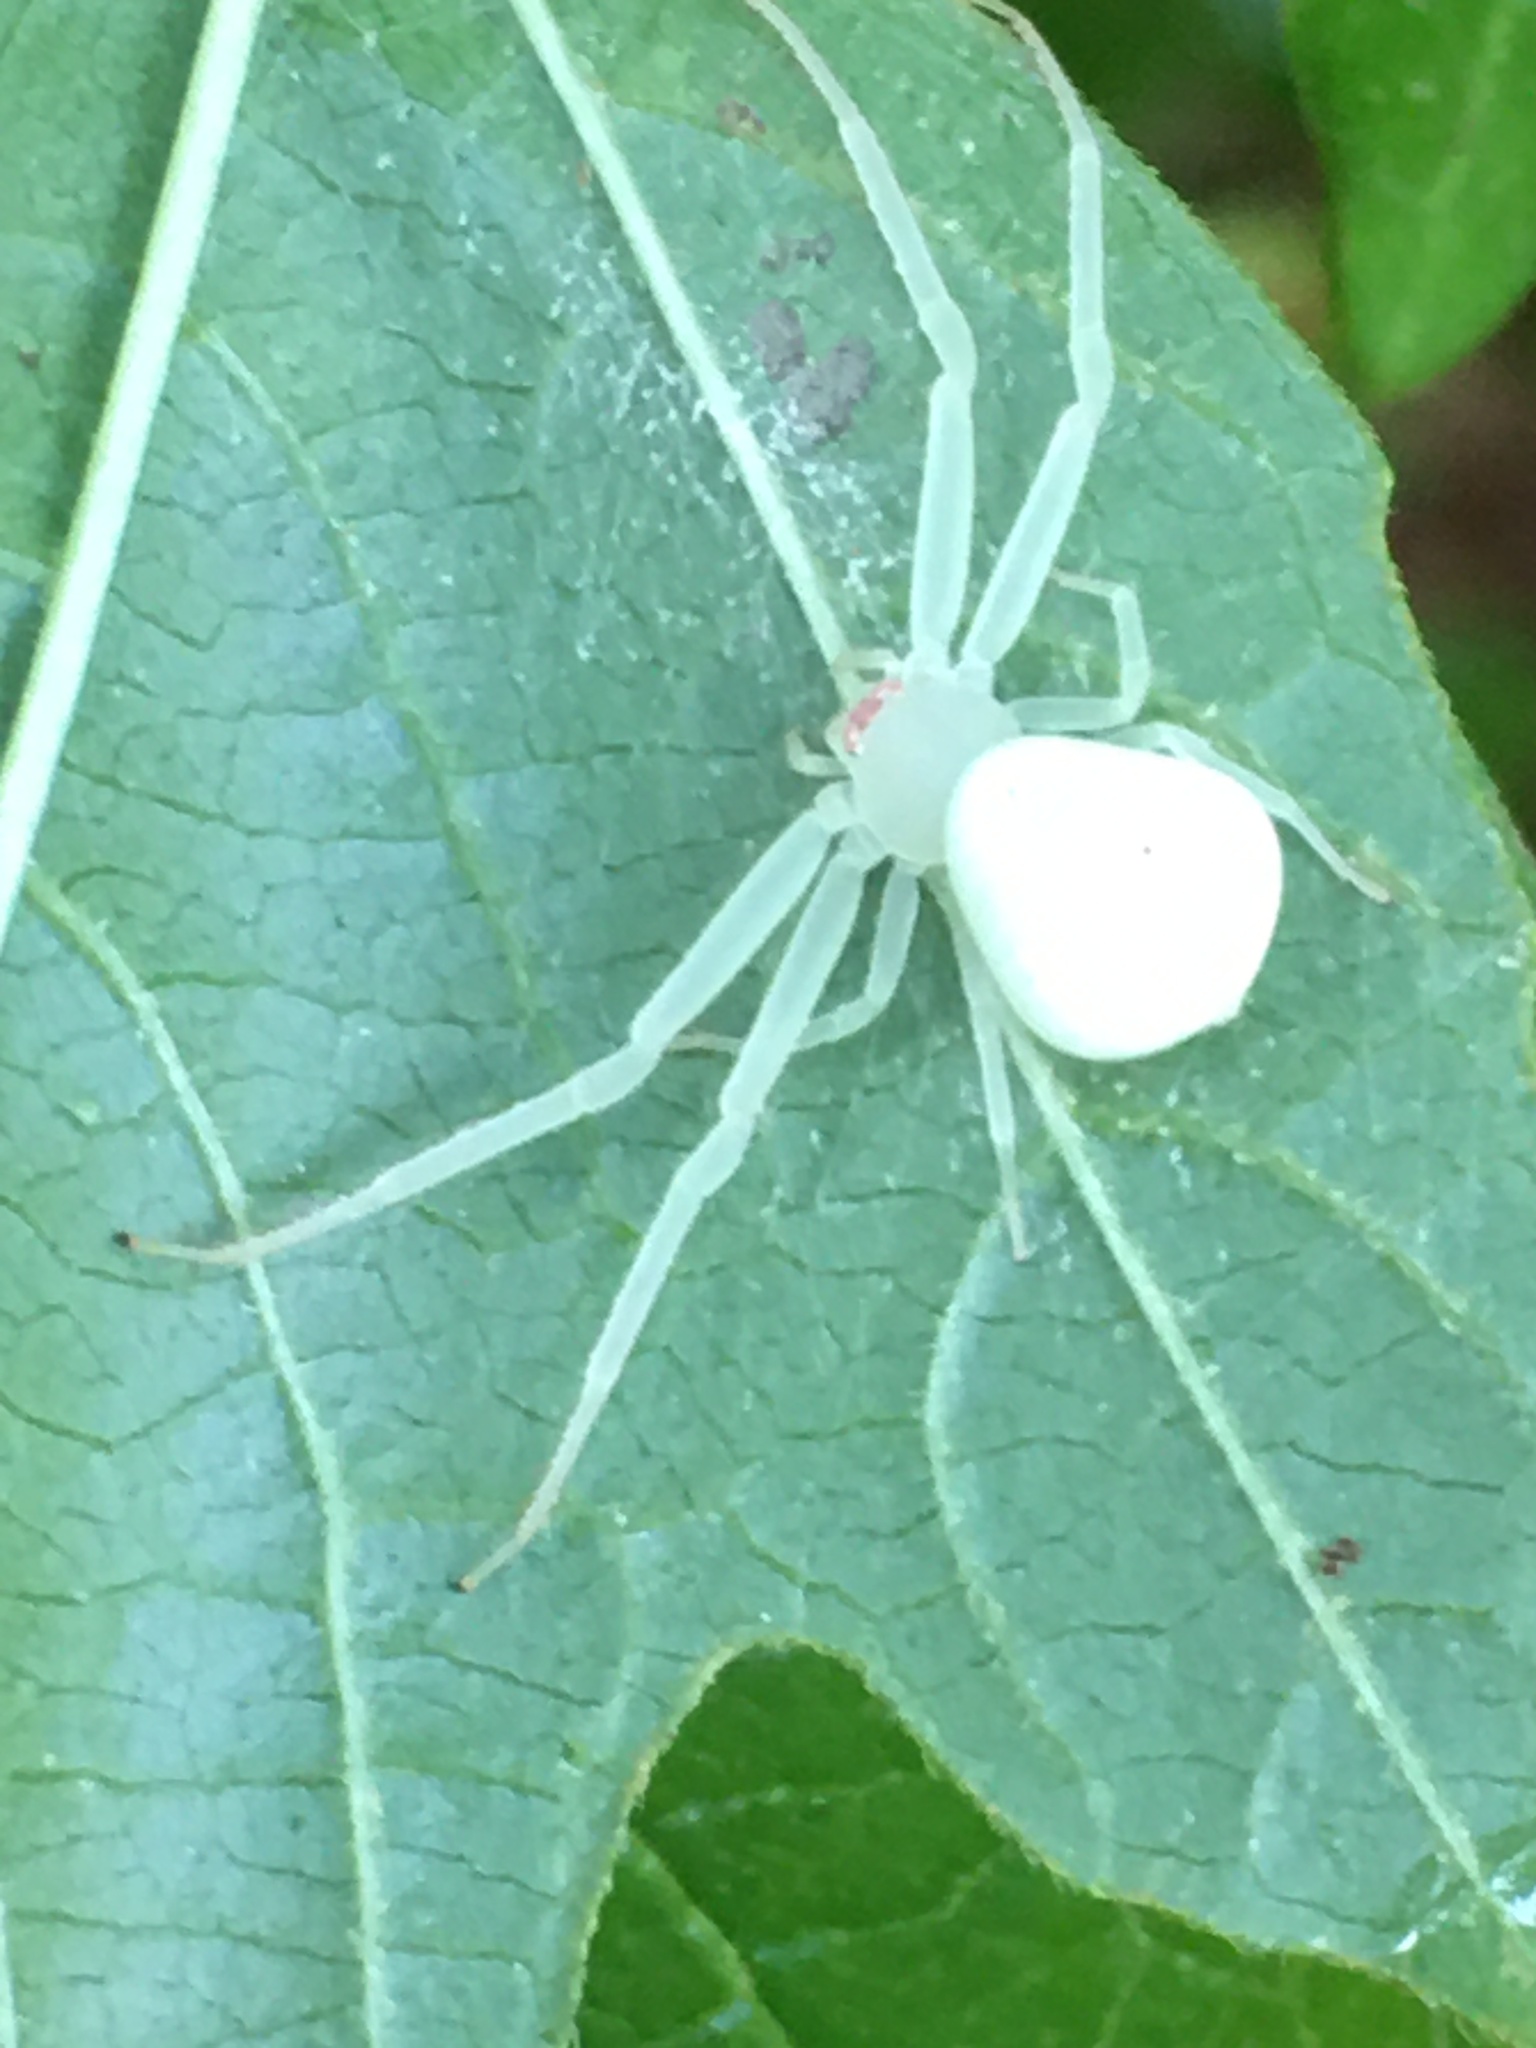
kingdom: Animalia
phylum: Arthropoda
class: Arachnida
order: Araneae
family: Thomisidae
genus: Misumessus
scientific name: Misumessus oblongus
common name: American green crab spider
